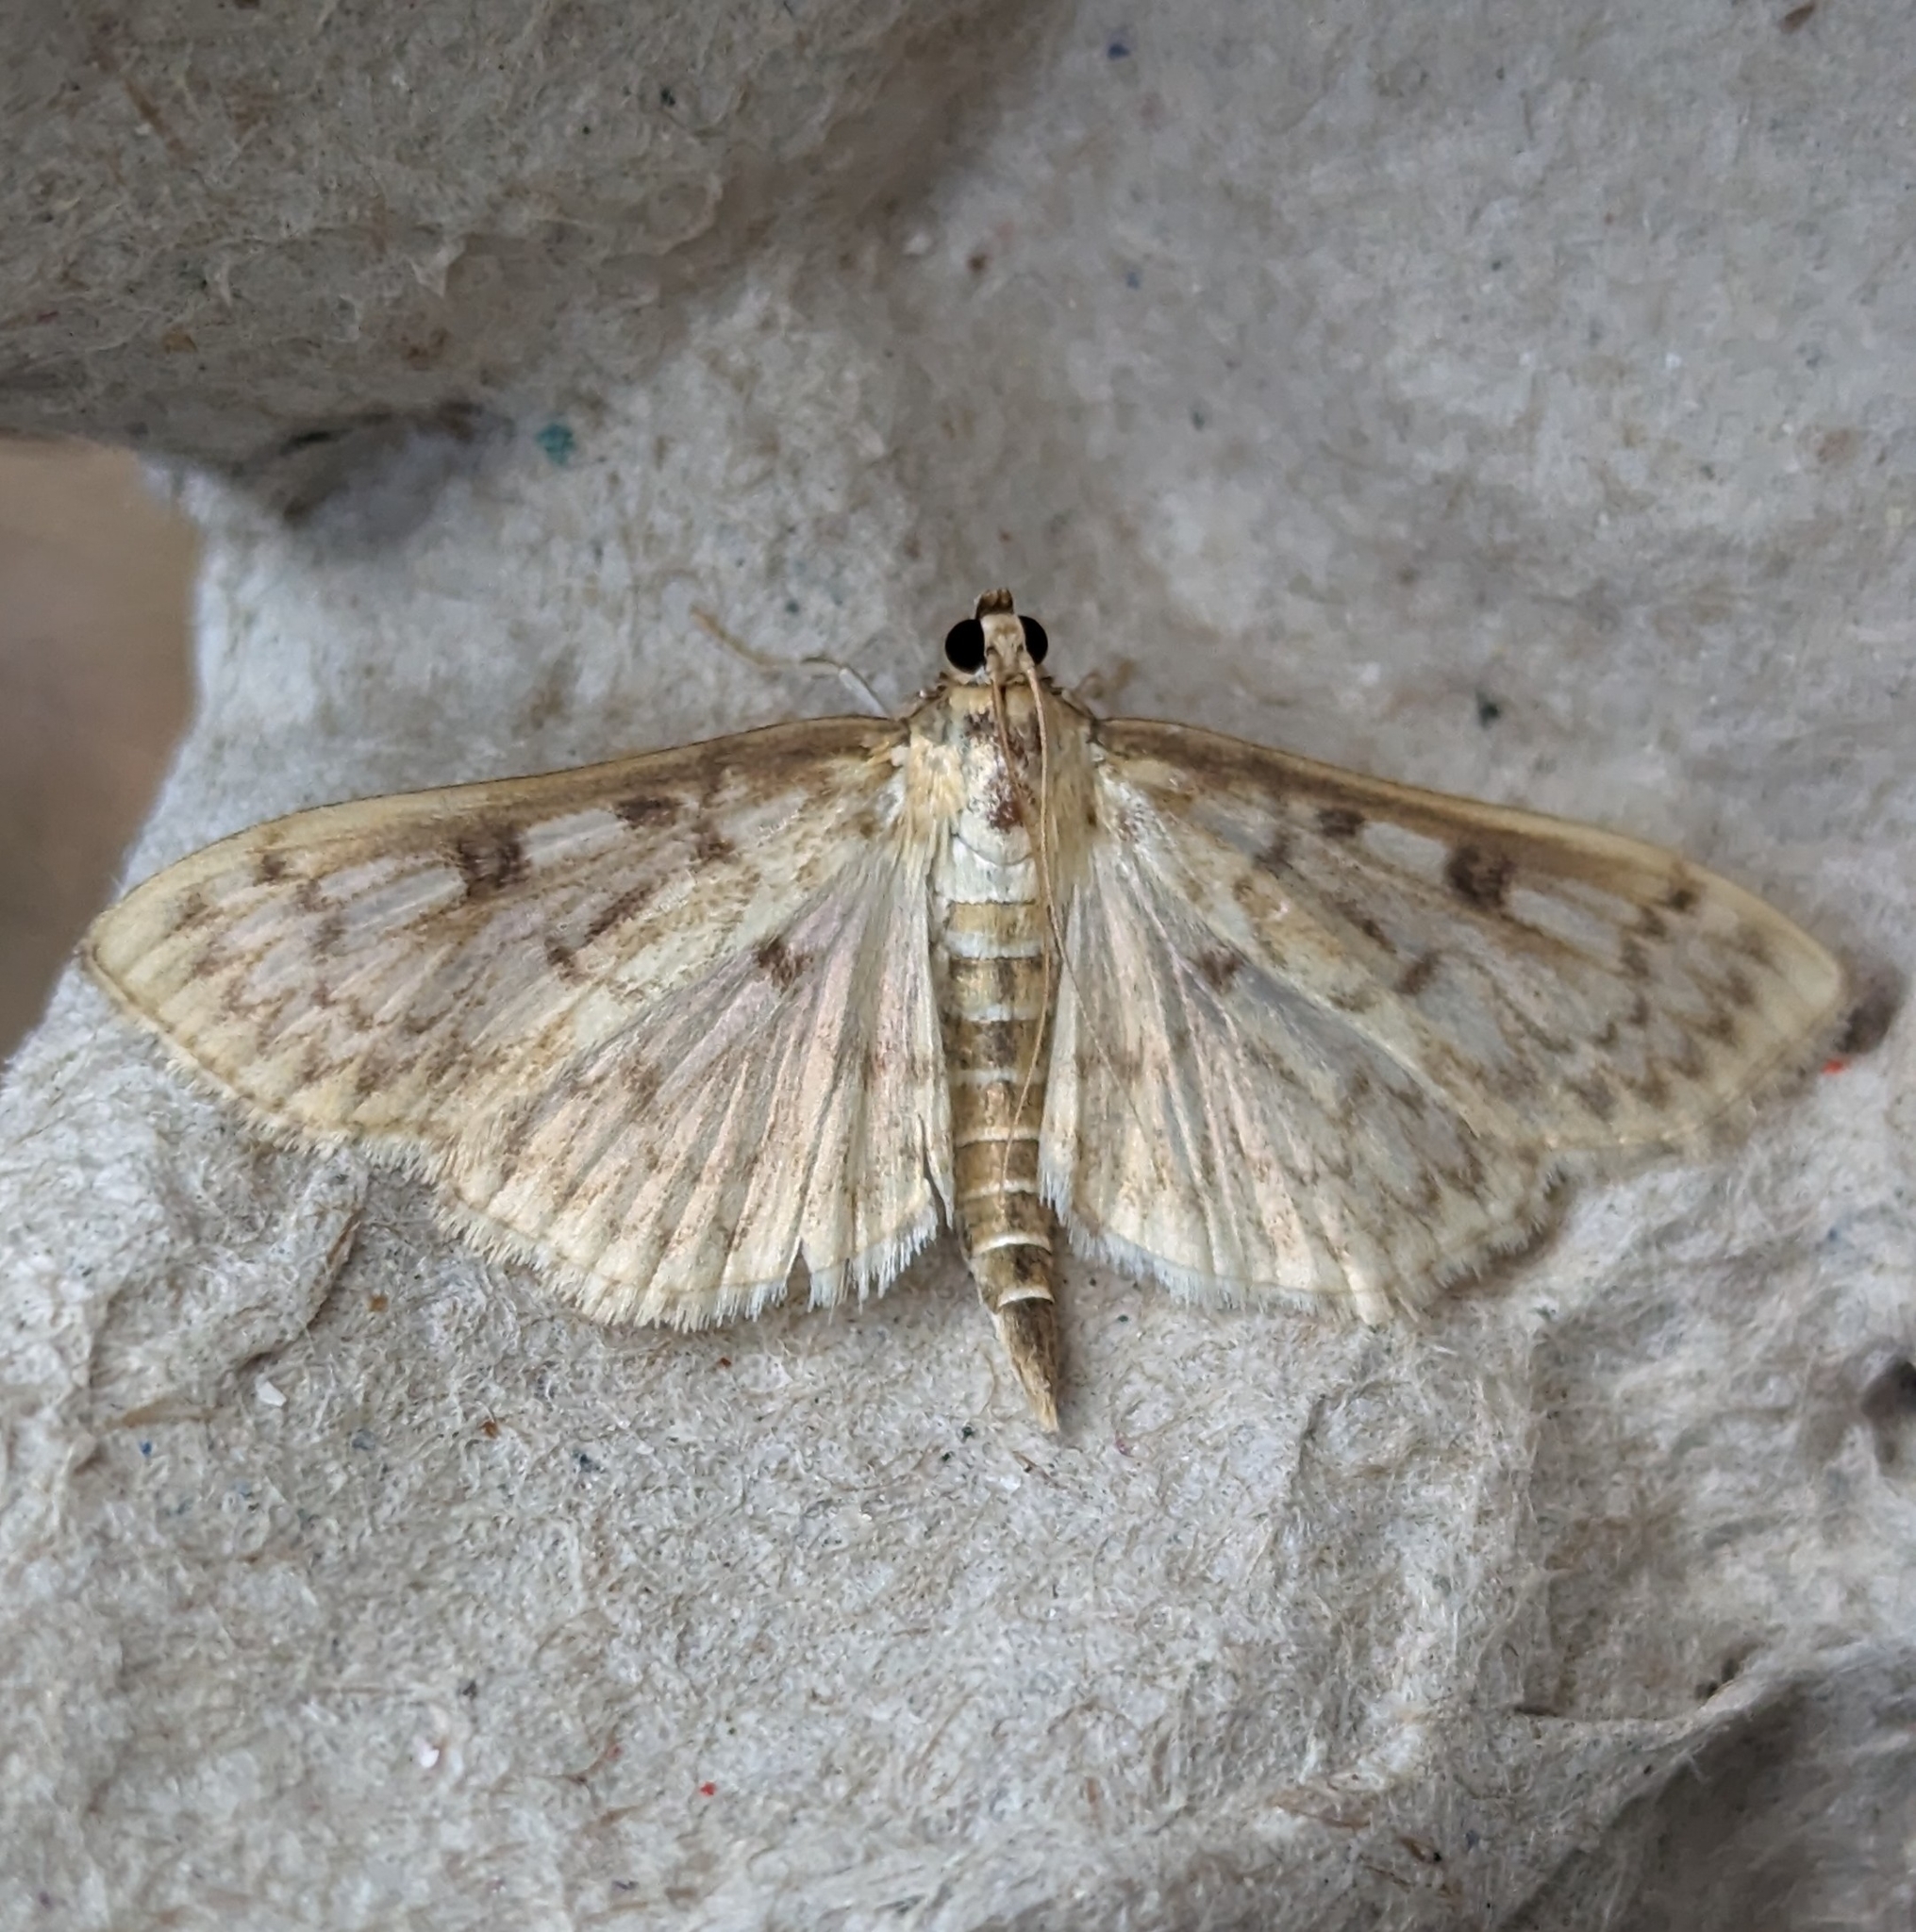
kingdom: Animalia
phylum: Arthropoda
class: Insecta
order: Lepidoptera
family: Crambidae
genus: Herpetogramma
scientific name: Herpetogramma aquilonalis
